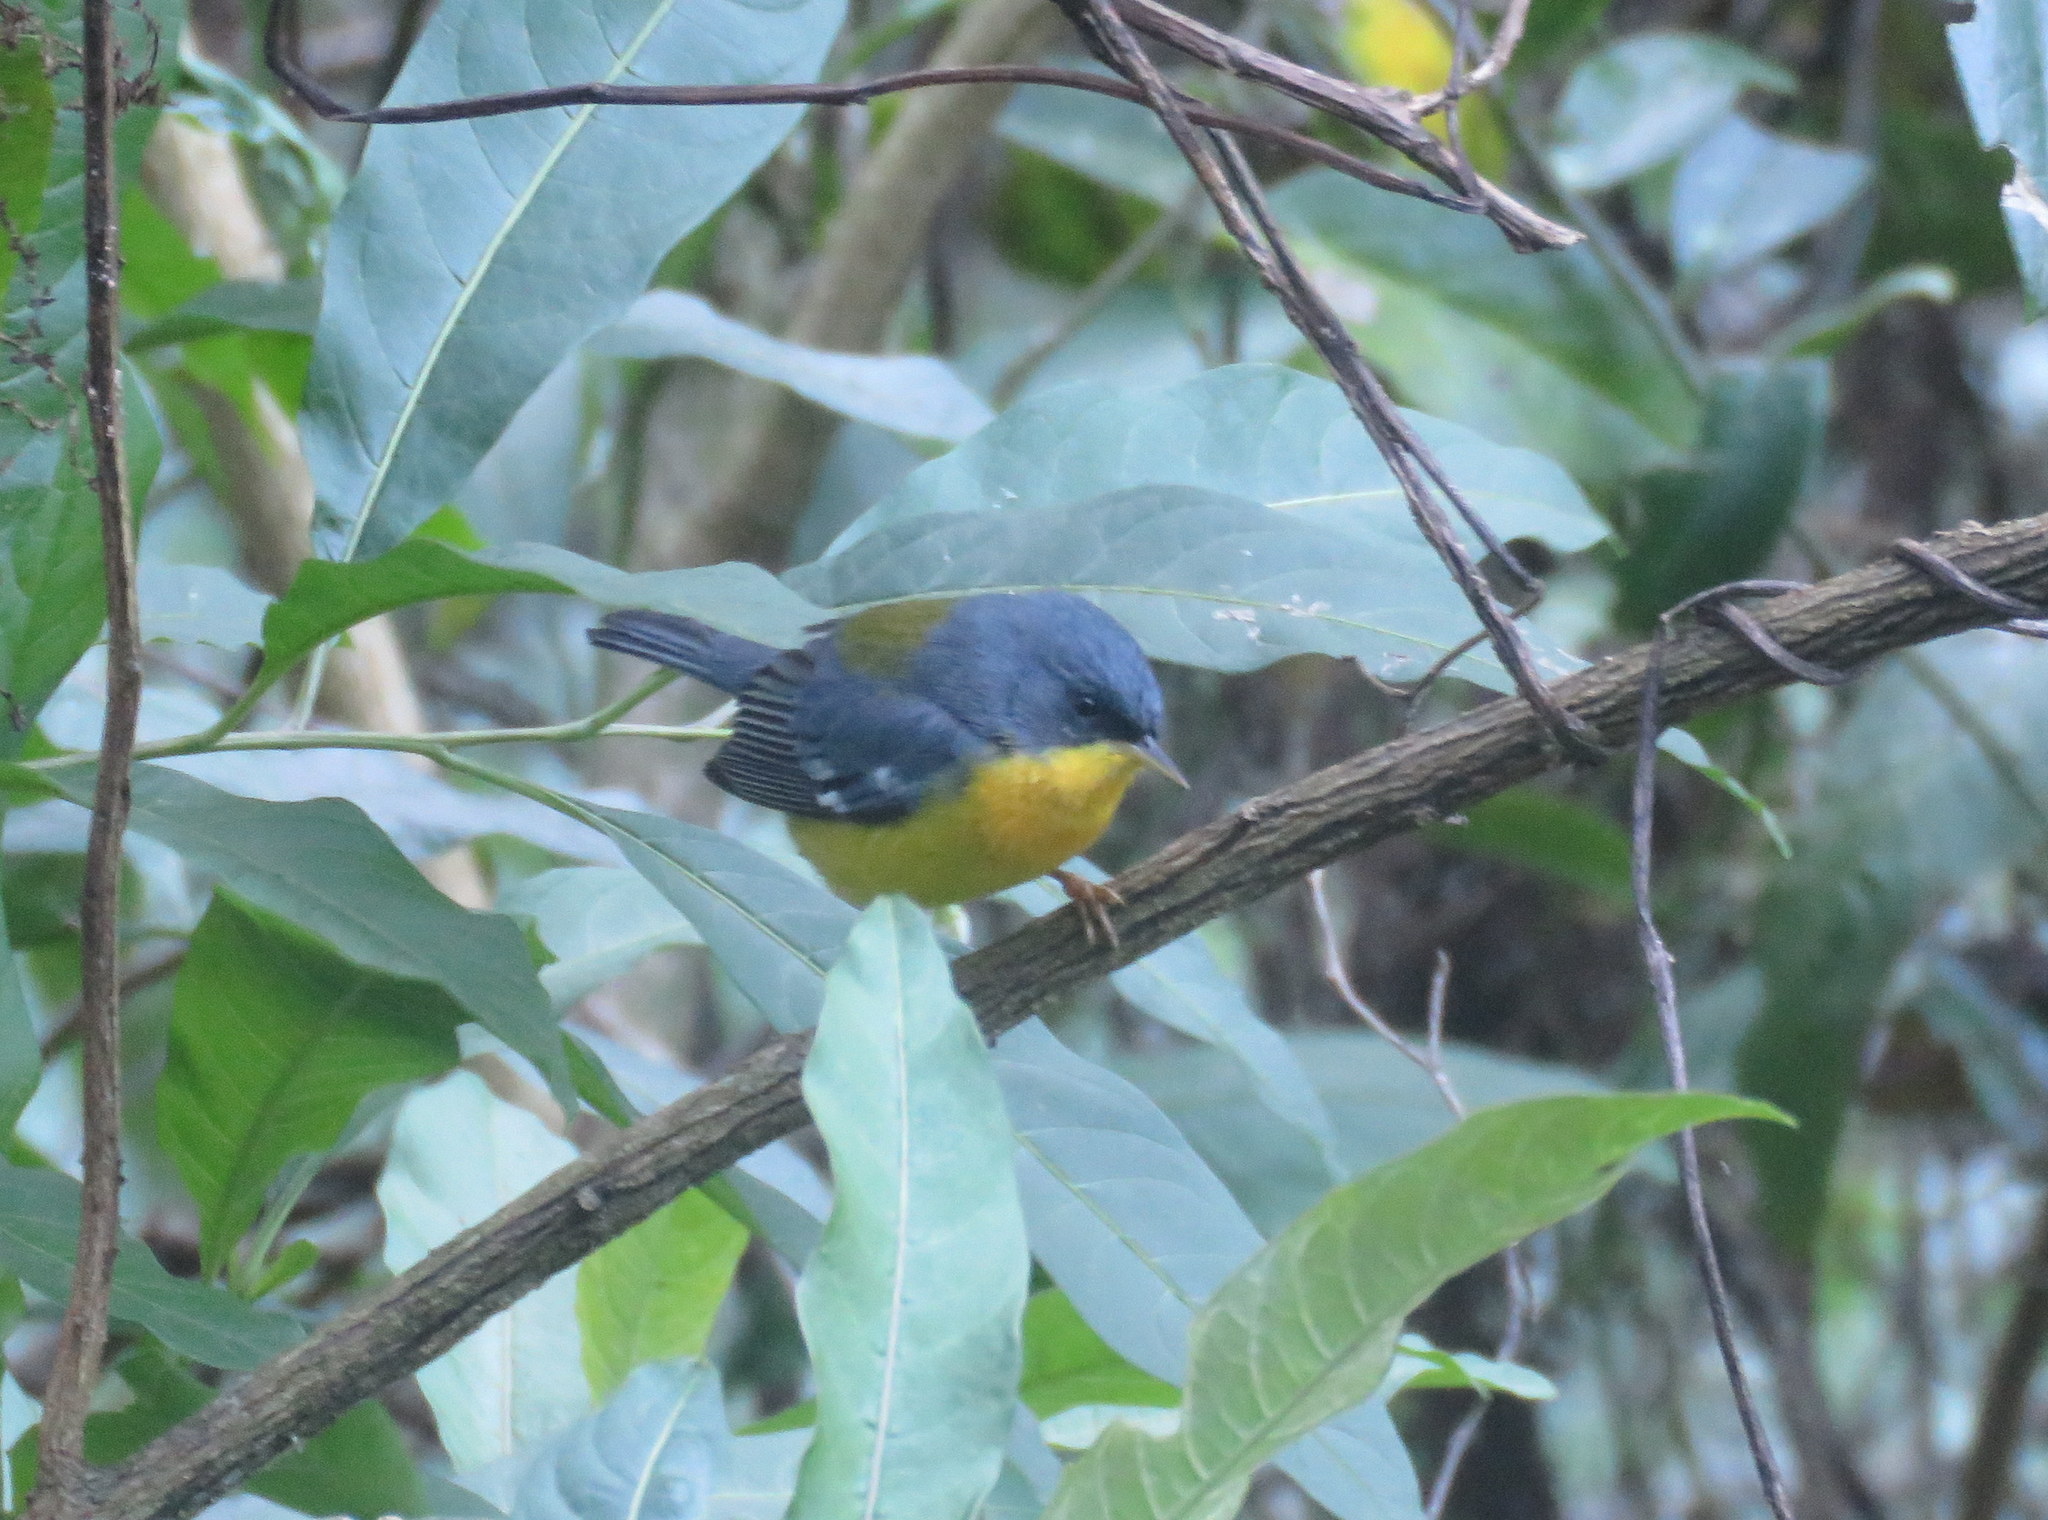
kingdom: Animalia
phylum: Chordata
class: Aves
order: Passeriformes
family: Parulidae
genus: Setophaga
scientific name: Setophaga pitiayumi
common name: Tropical parula
